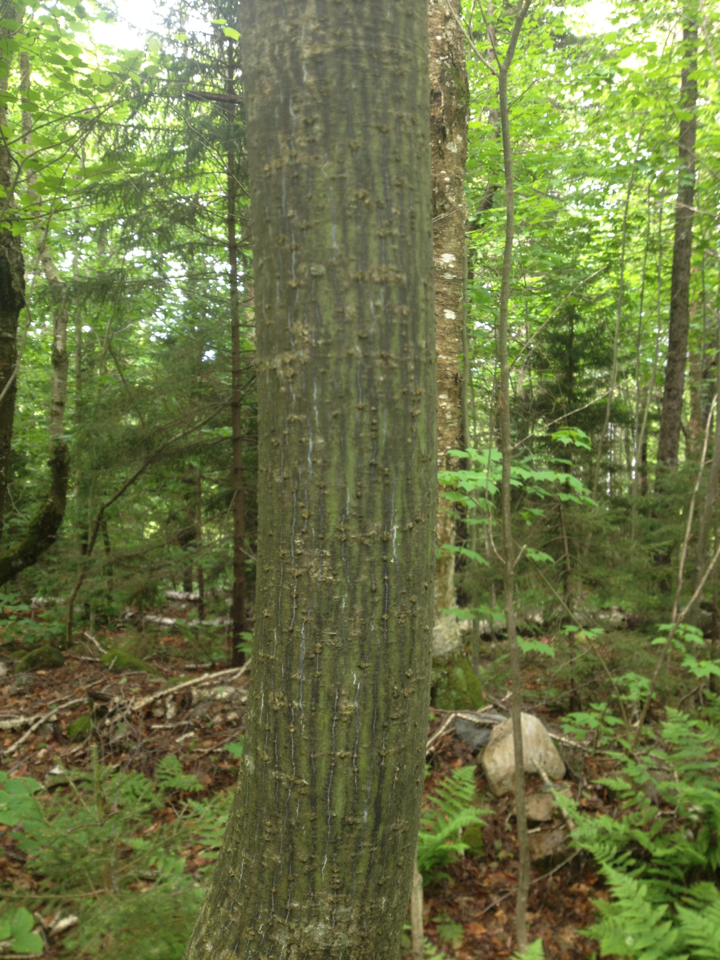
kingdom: Plantae
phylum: Tracheophyta
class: Magnoliopsida
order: Sapindales
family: Sapindaceae
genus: Acer
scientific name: Acer pensylvanicum
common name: Moosewood
